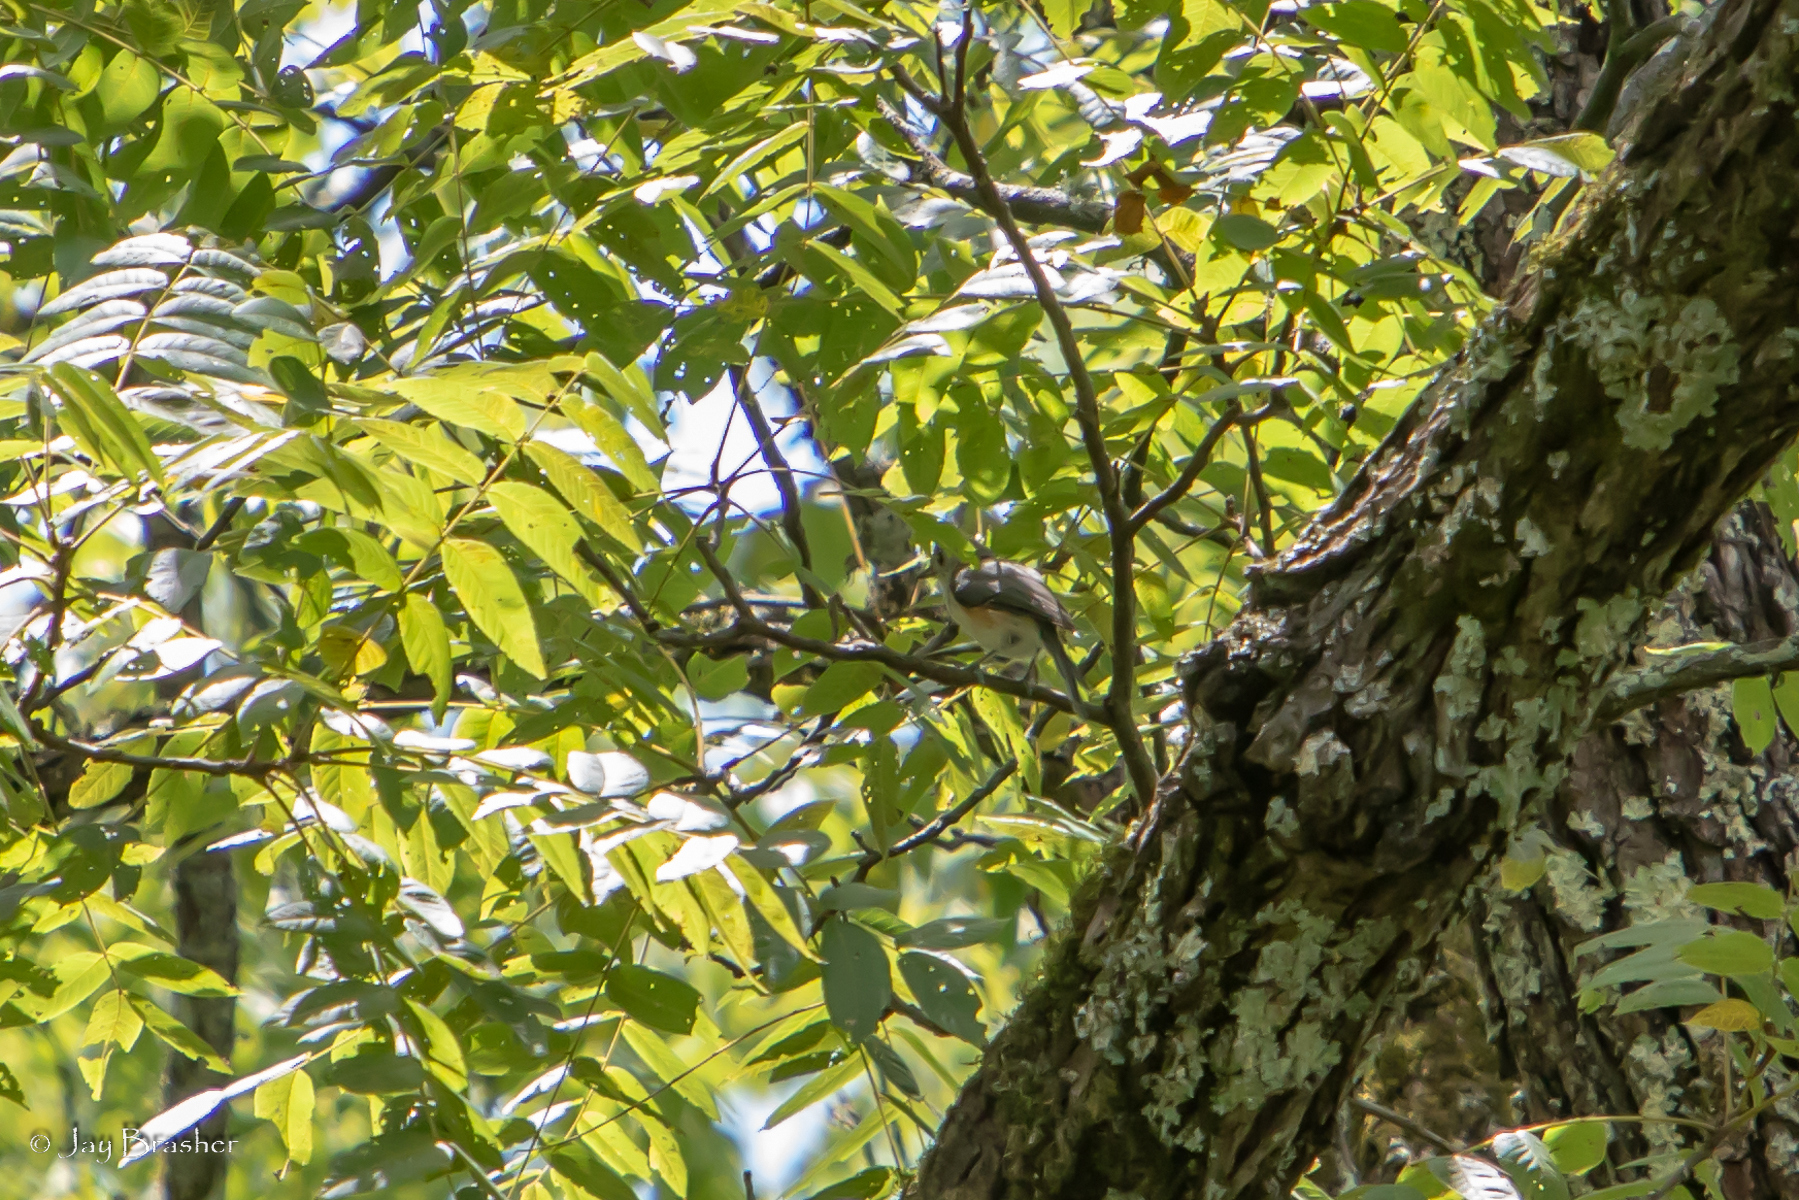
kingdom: Animalia
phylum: Chordata
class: Aves
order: Passeriformes
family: Paridae
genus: Baeolophus
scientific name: Baeolophus bicolor
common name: Tufted titmouse
